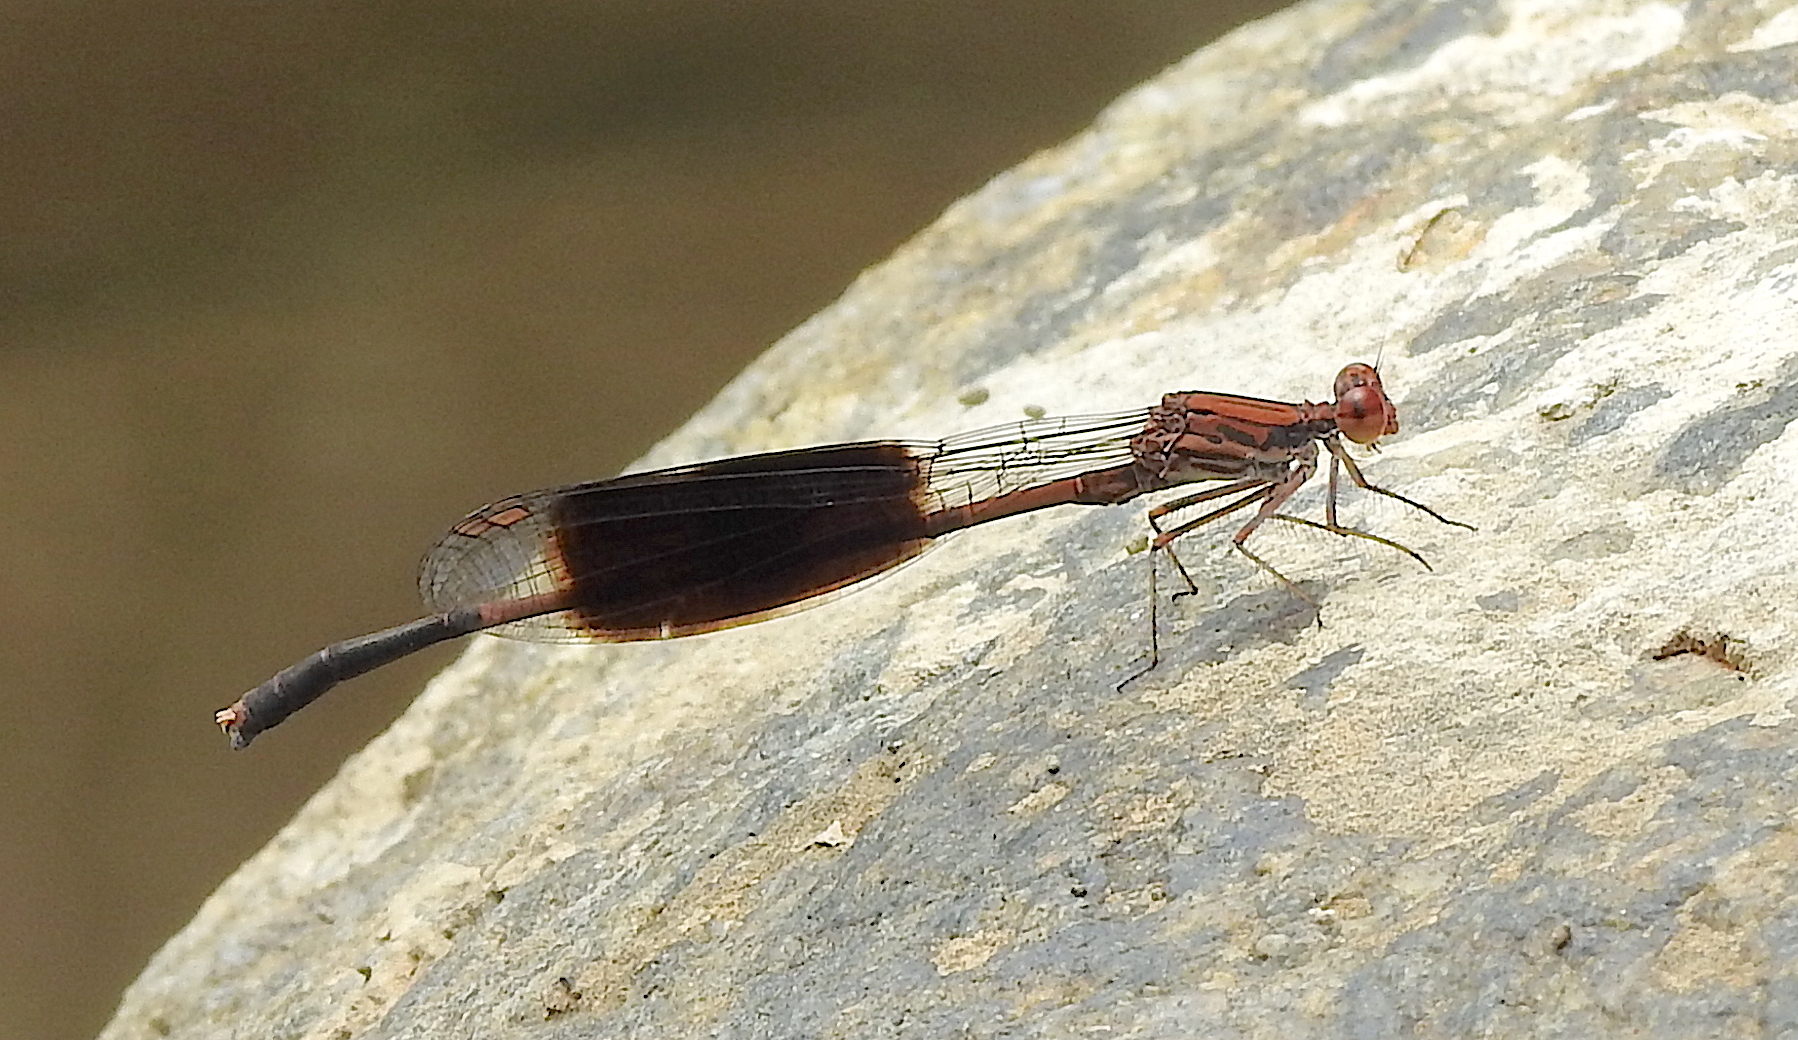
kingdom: Animalia
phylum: Arthropoda
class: Insecta
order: Odonata
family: Platycnemididae
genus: Disparoneura
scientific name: Disparoneura quadrimaculata
